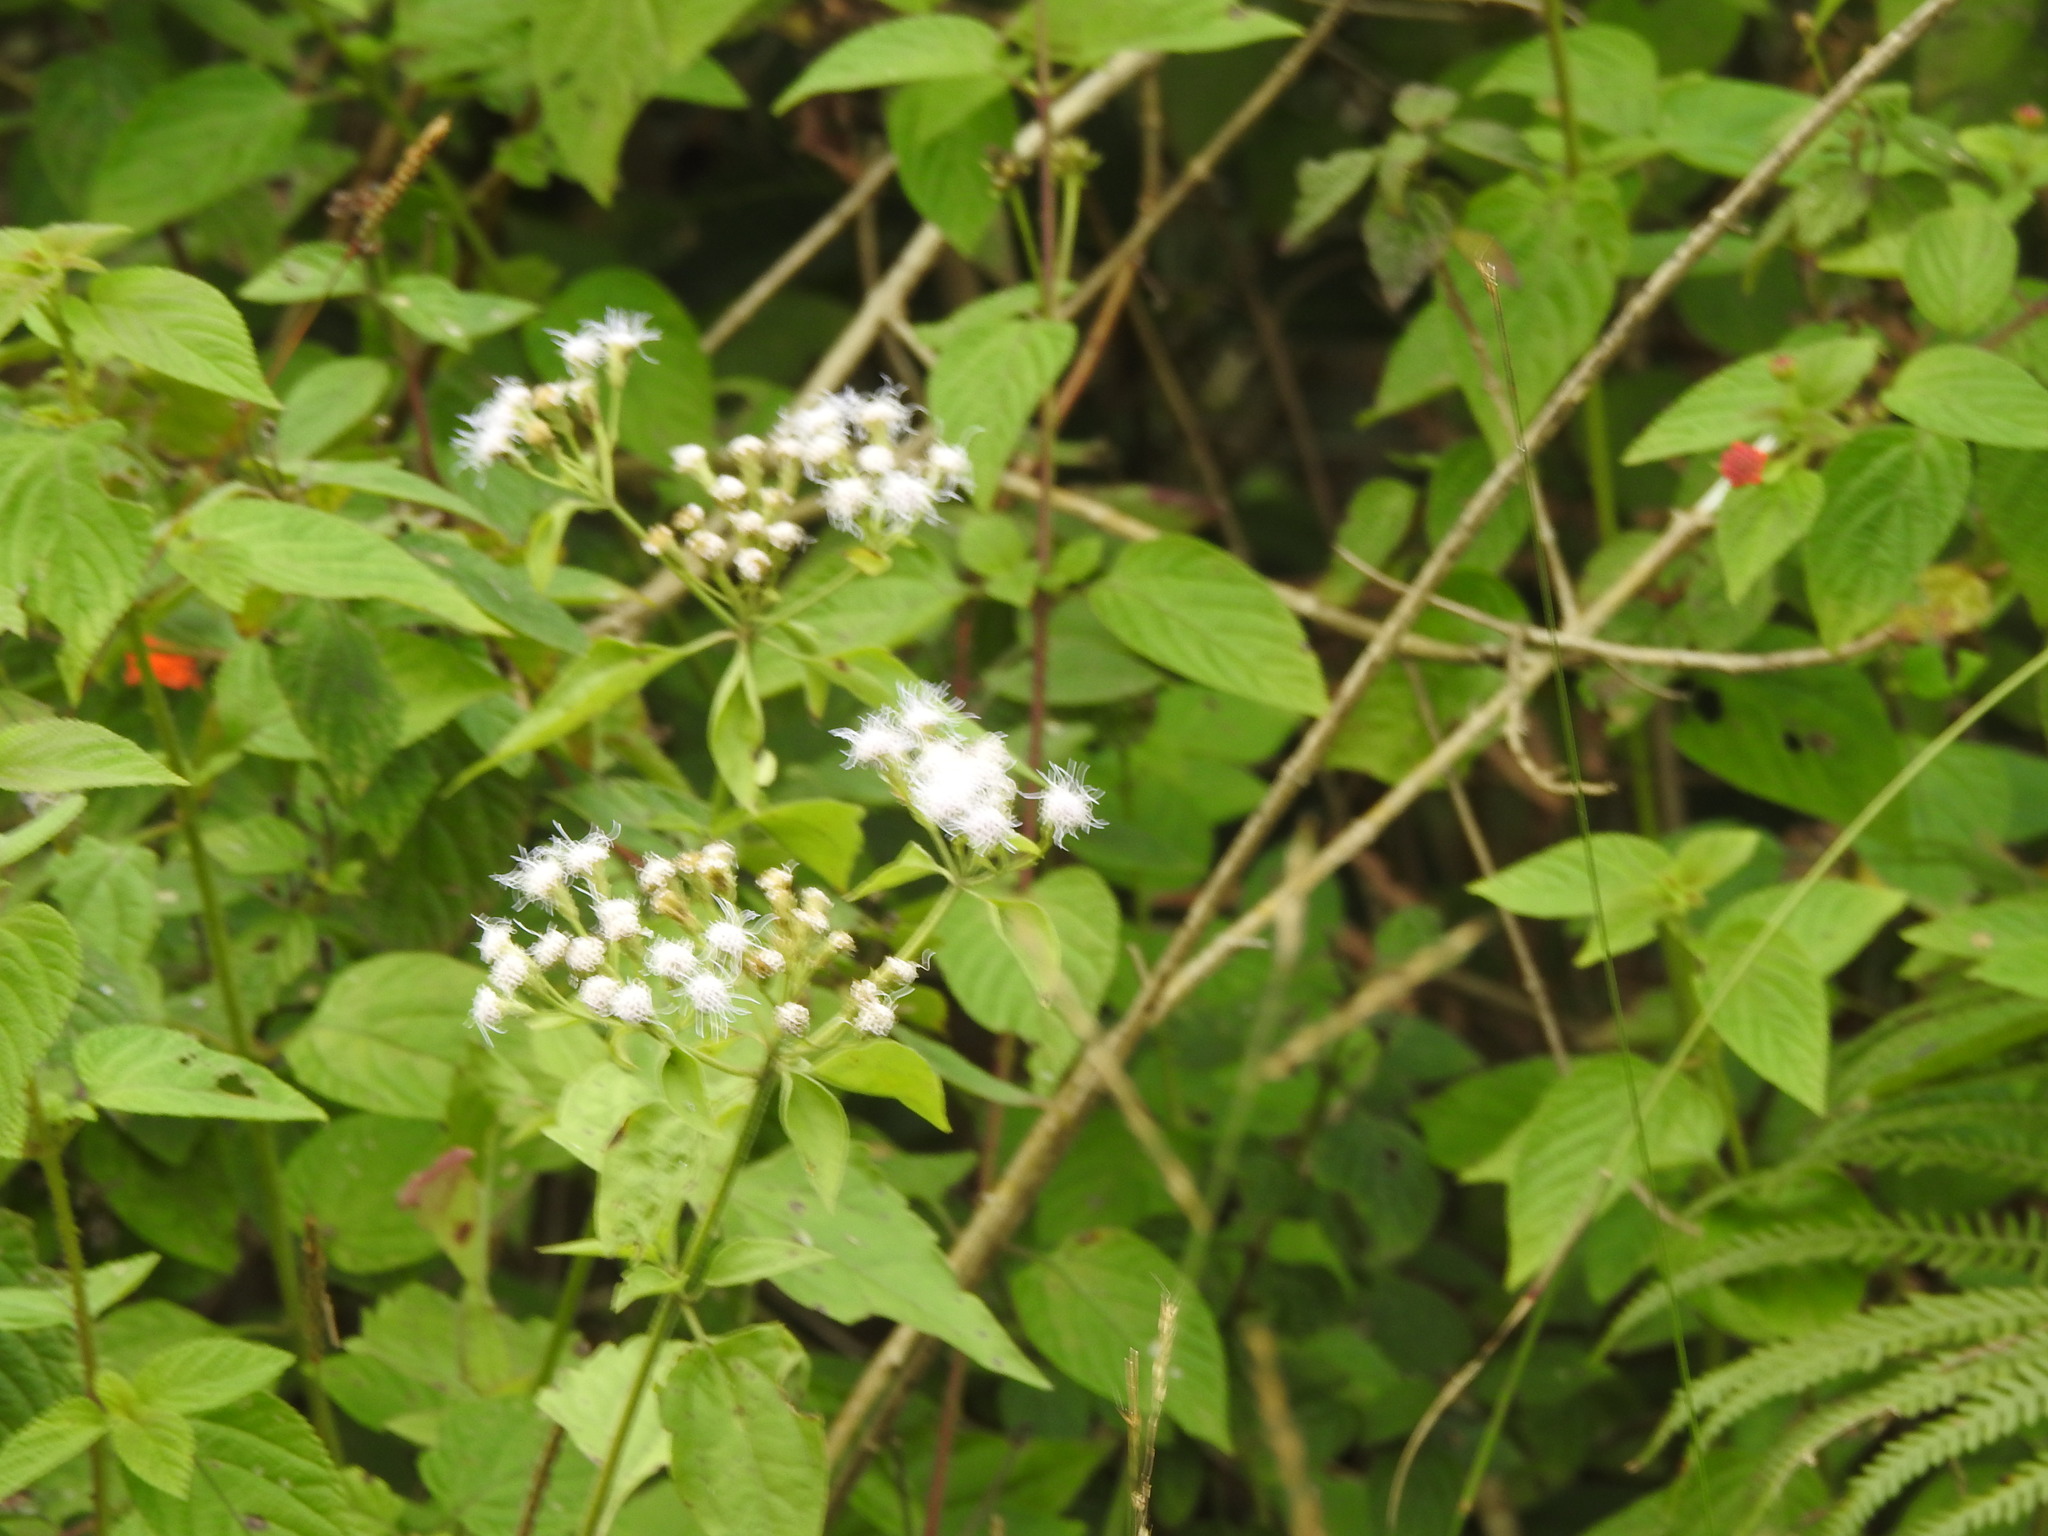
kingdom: Plantae
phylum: Tracheophyta
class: Magnoliopsida
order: Asterales
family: Asteraceae
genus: Chromolaena
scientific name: Chromolaena odorata
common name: Siamweed
